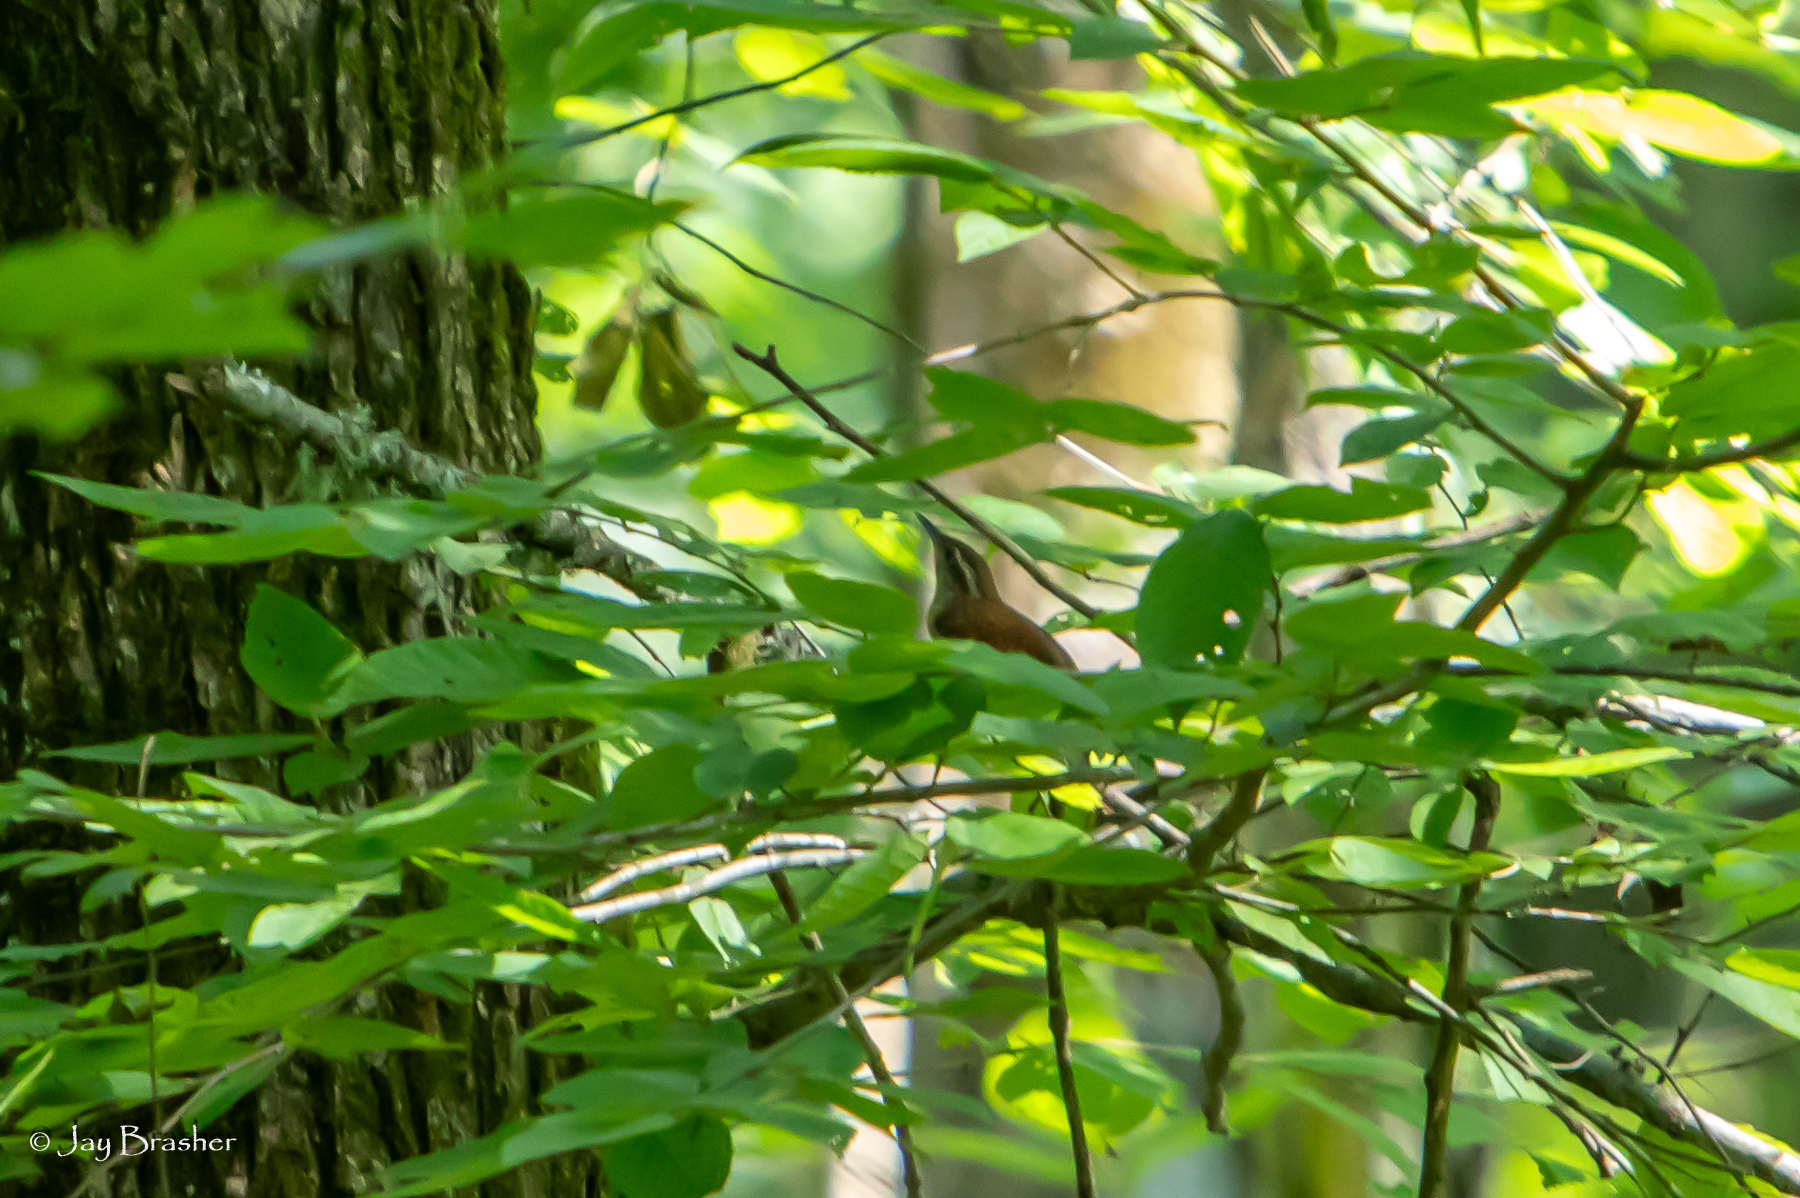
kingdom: Animalia
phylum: Chordata
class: Aves
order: Passeriformes
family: Troglodytidae
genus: Thryothorus
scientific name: Thryothorus ludovicianus
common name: Carolina wren
